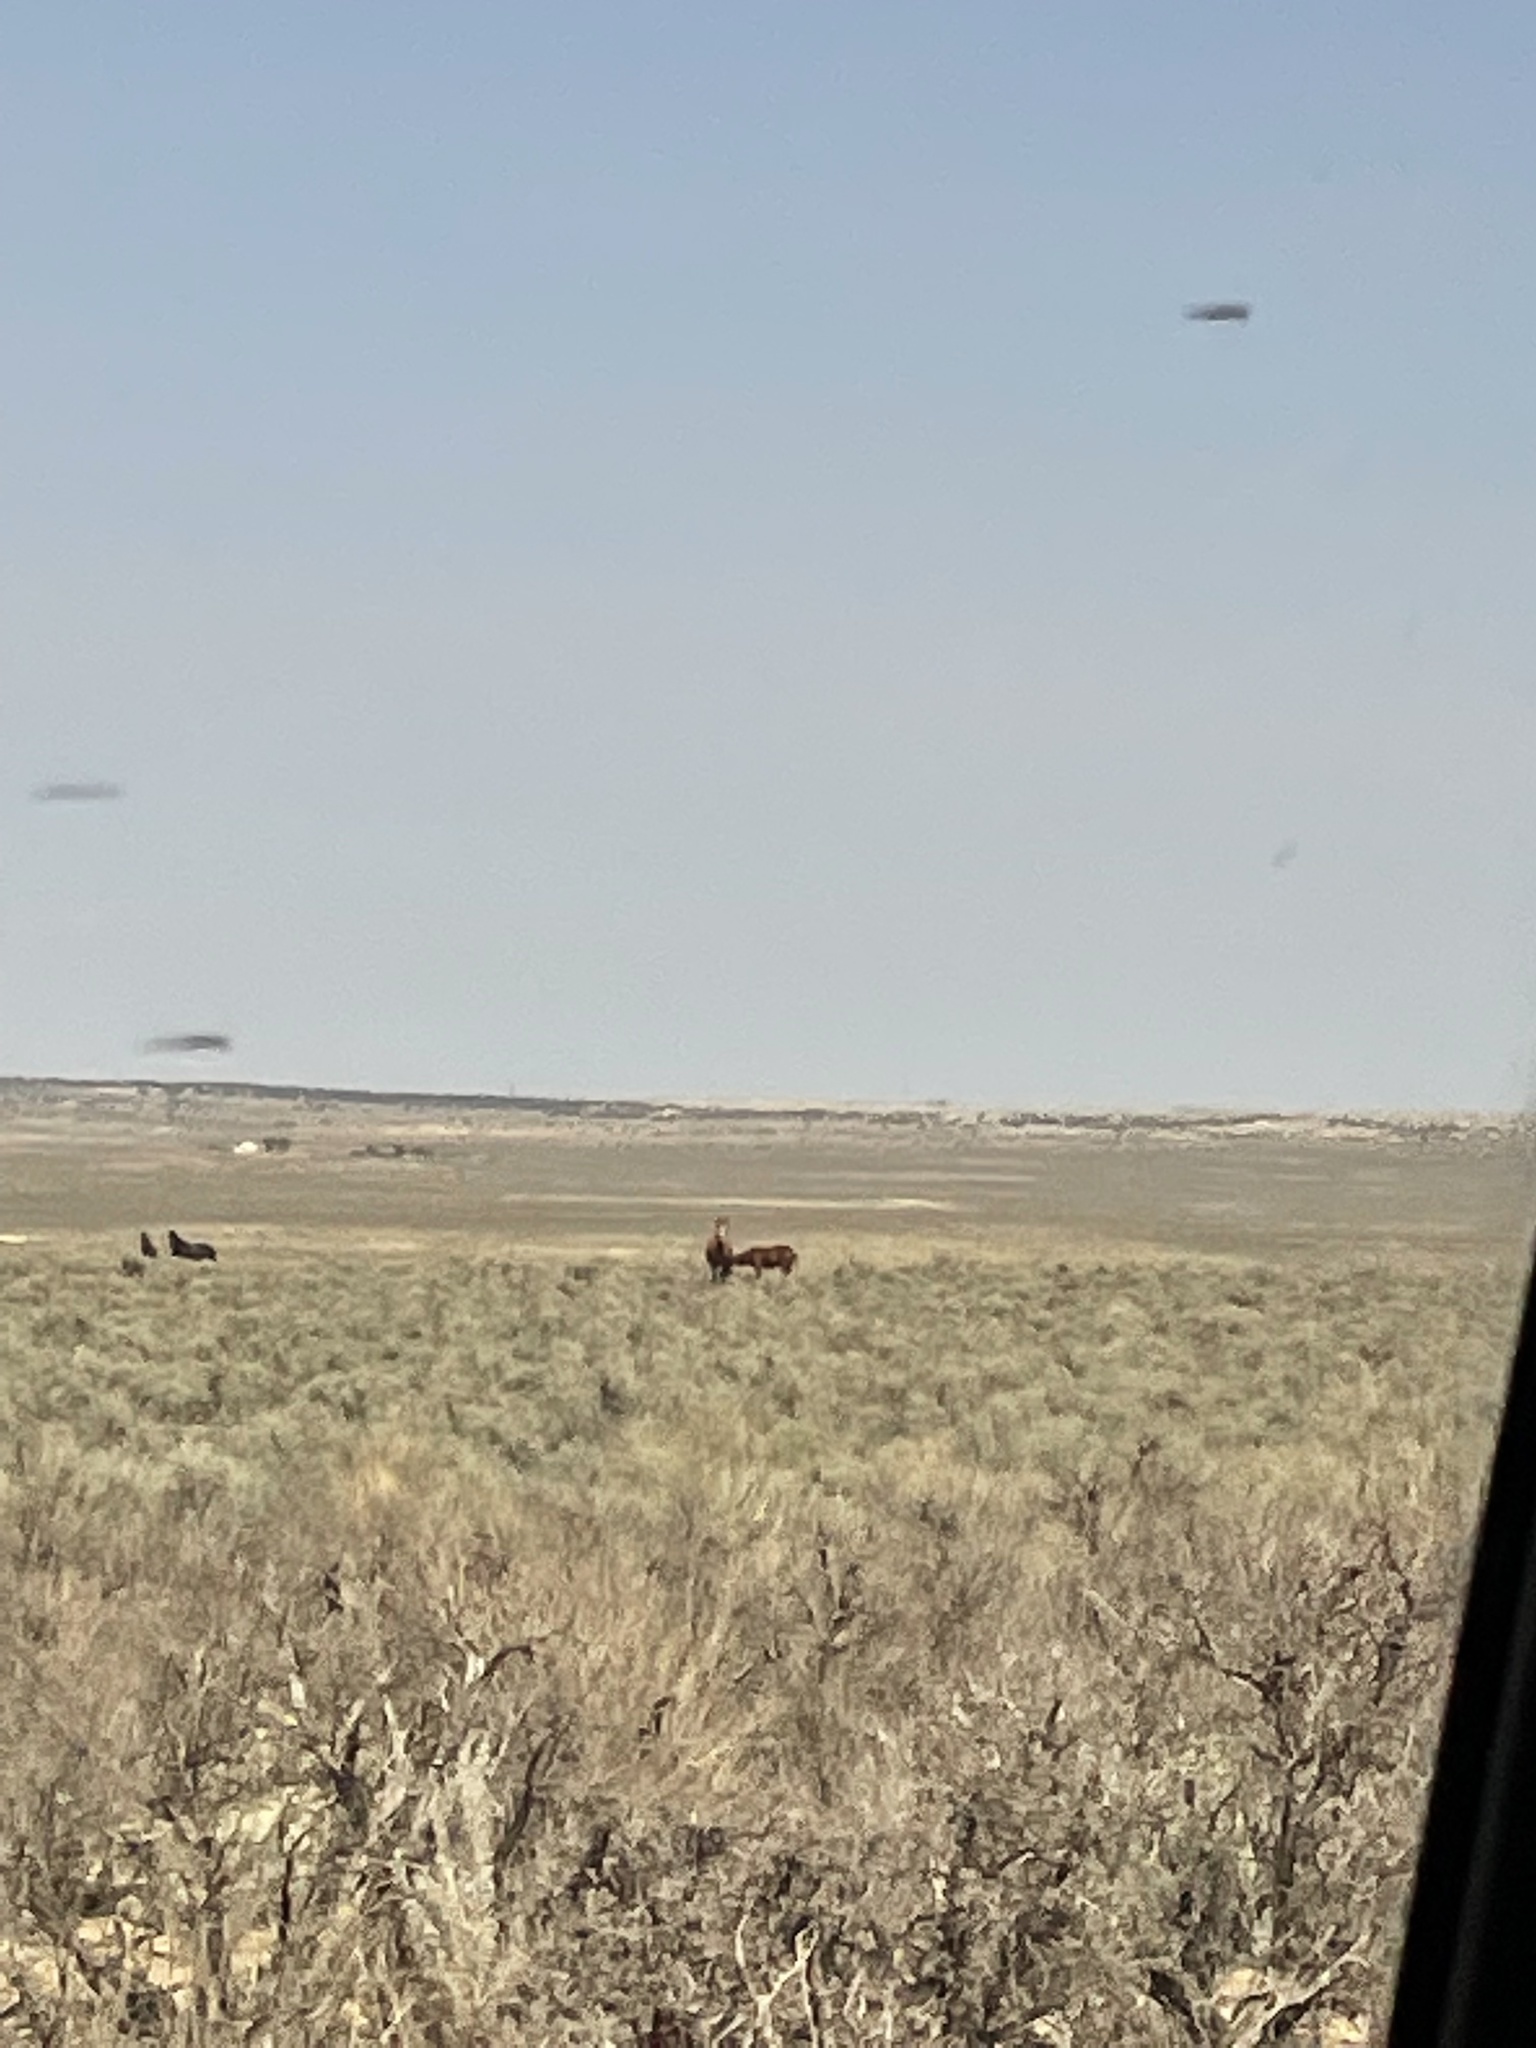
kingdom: Animalia
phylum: Chordata
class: Mammalia
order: Perissodactyla
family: Equidae
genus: Equus
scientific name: Equus caballus
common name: Horse
